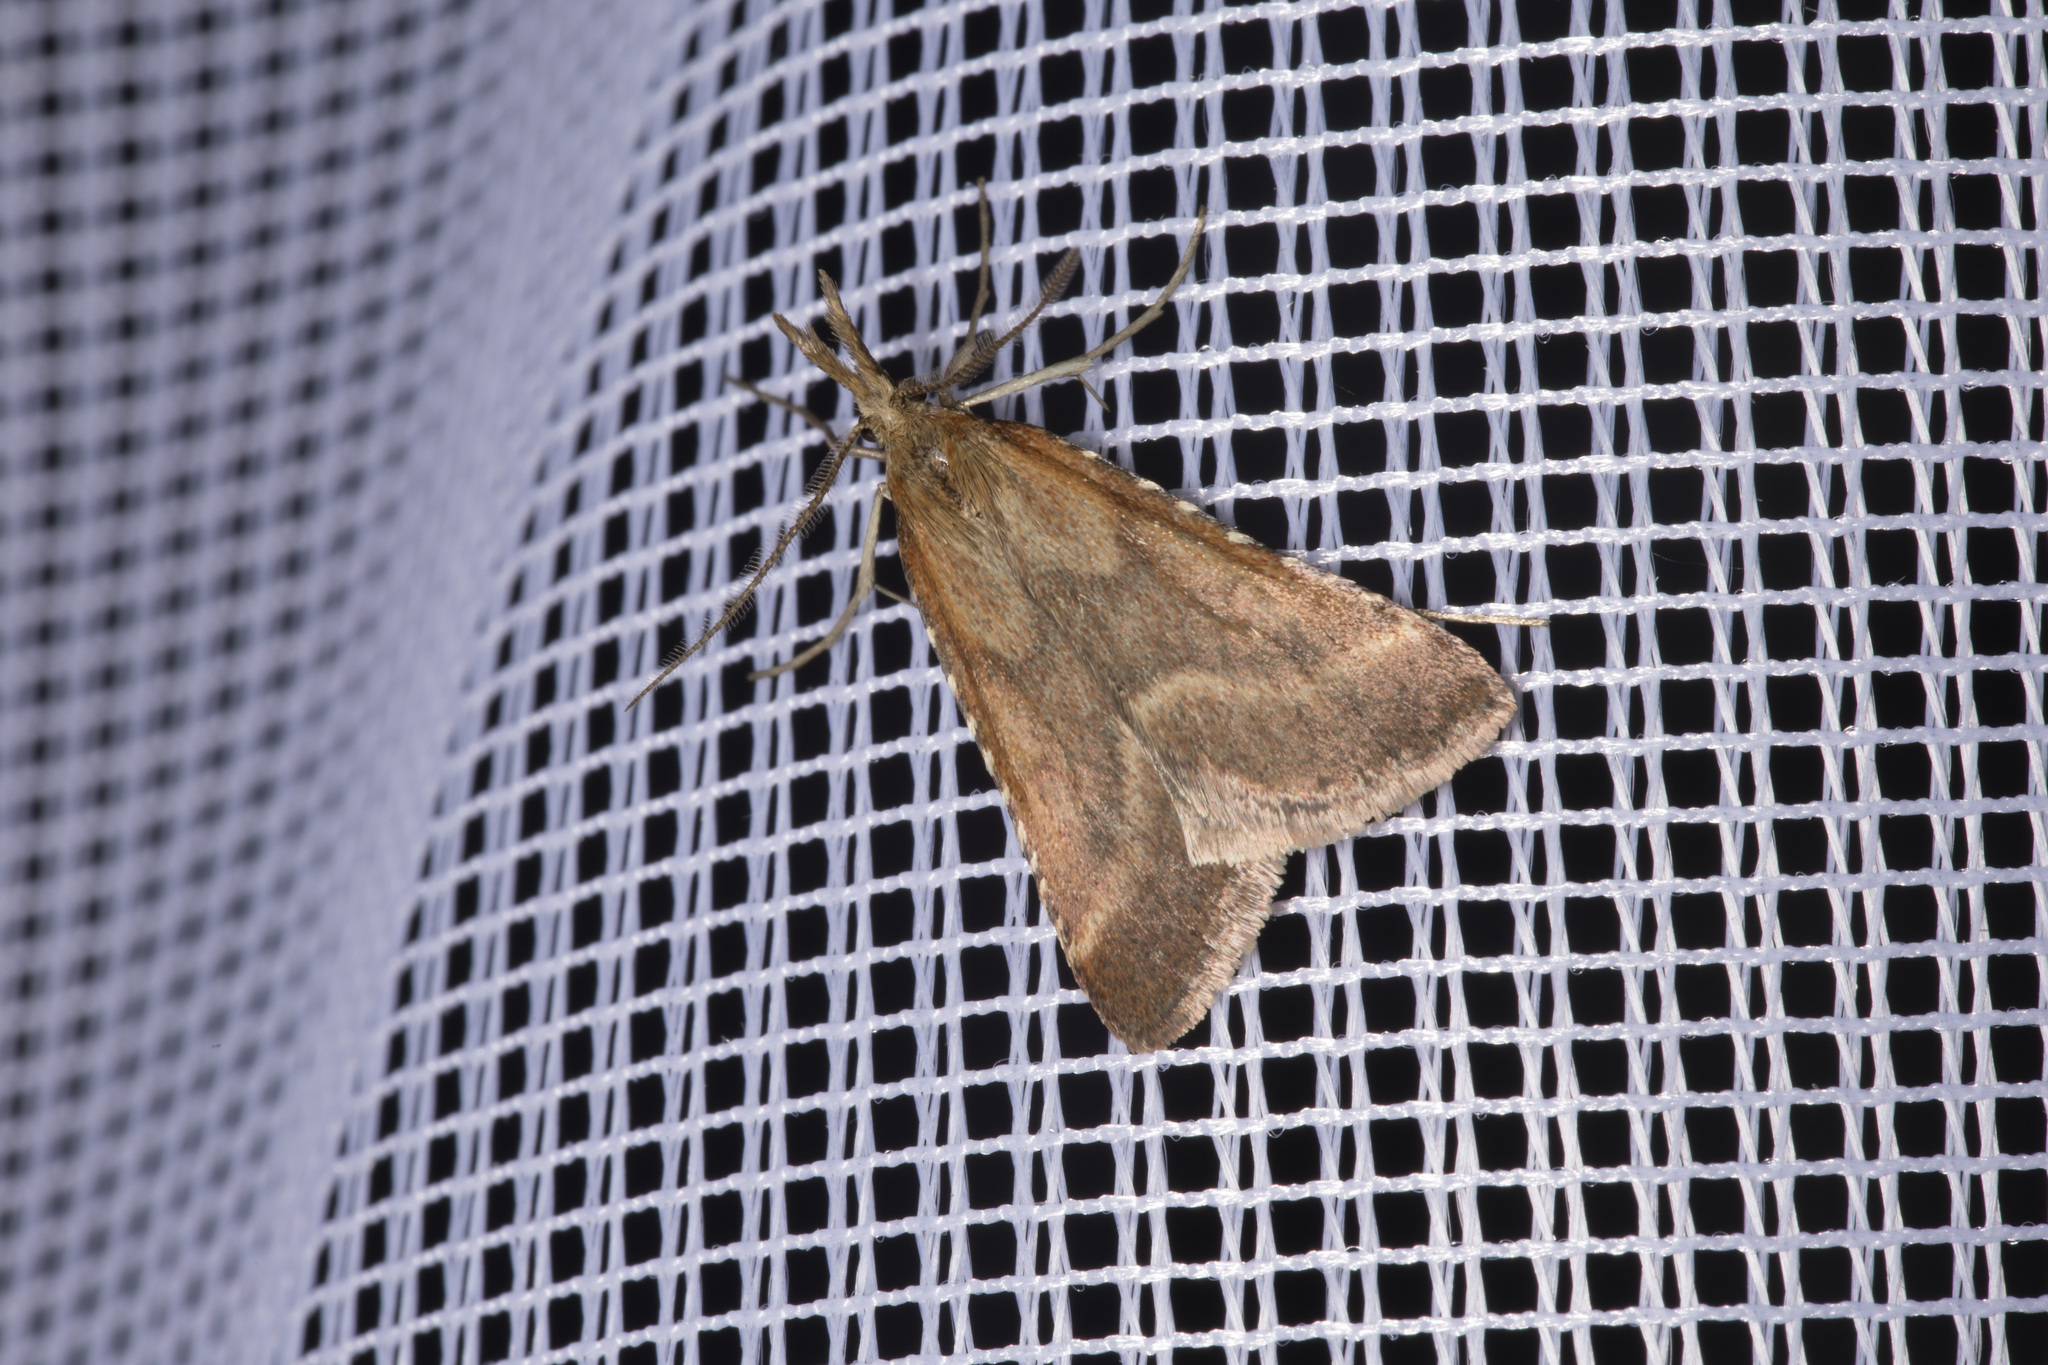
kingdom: Animalia
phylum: Arthropoda
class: Insecta
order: Lepidoptera
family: Pyralidae
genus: Synaphe
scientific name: Synaphe punctalis
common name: Long-legged tabby
